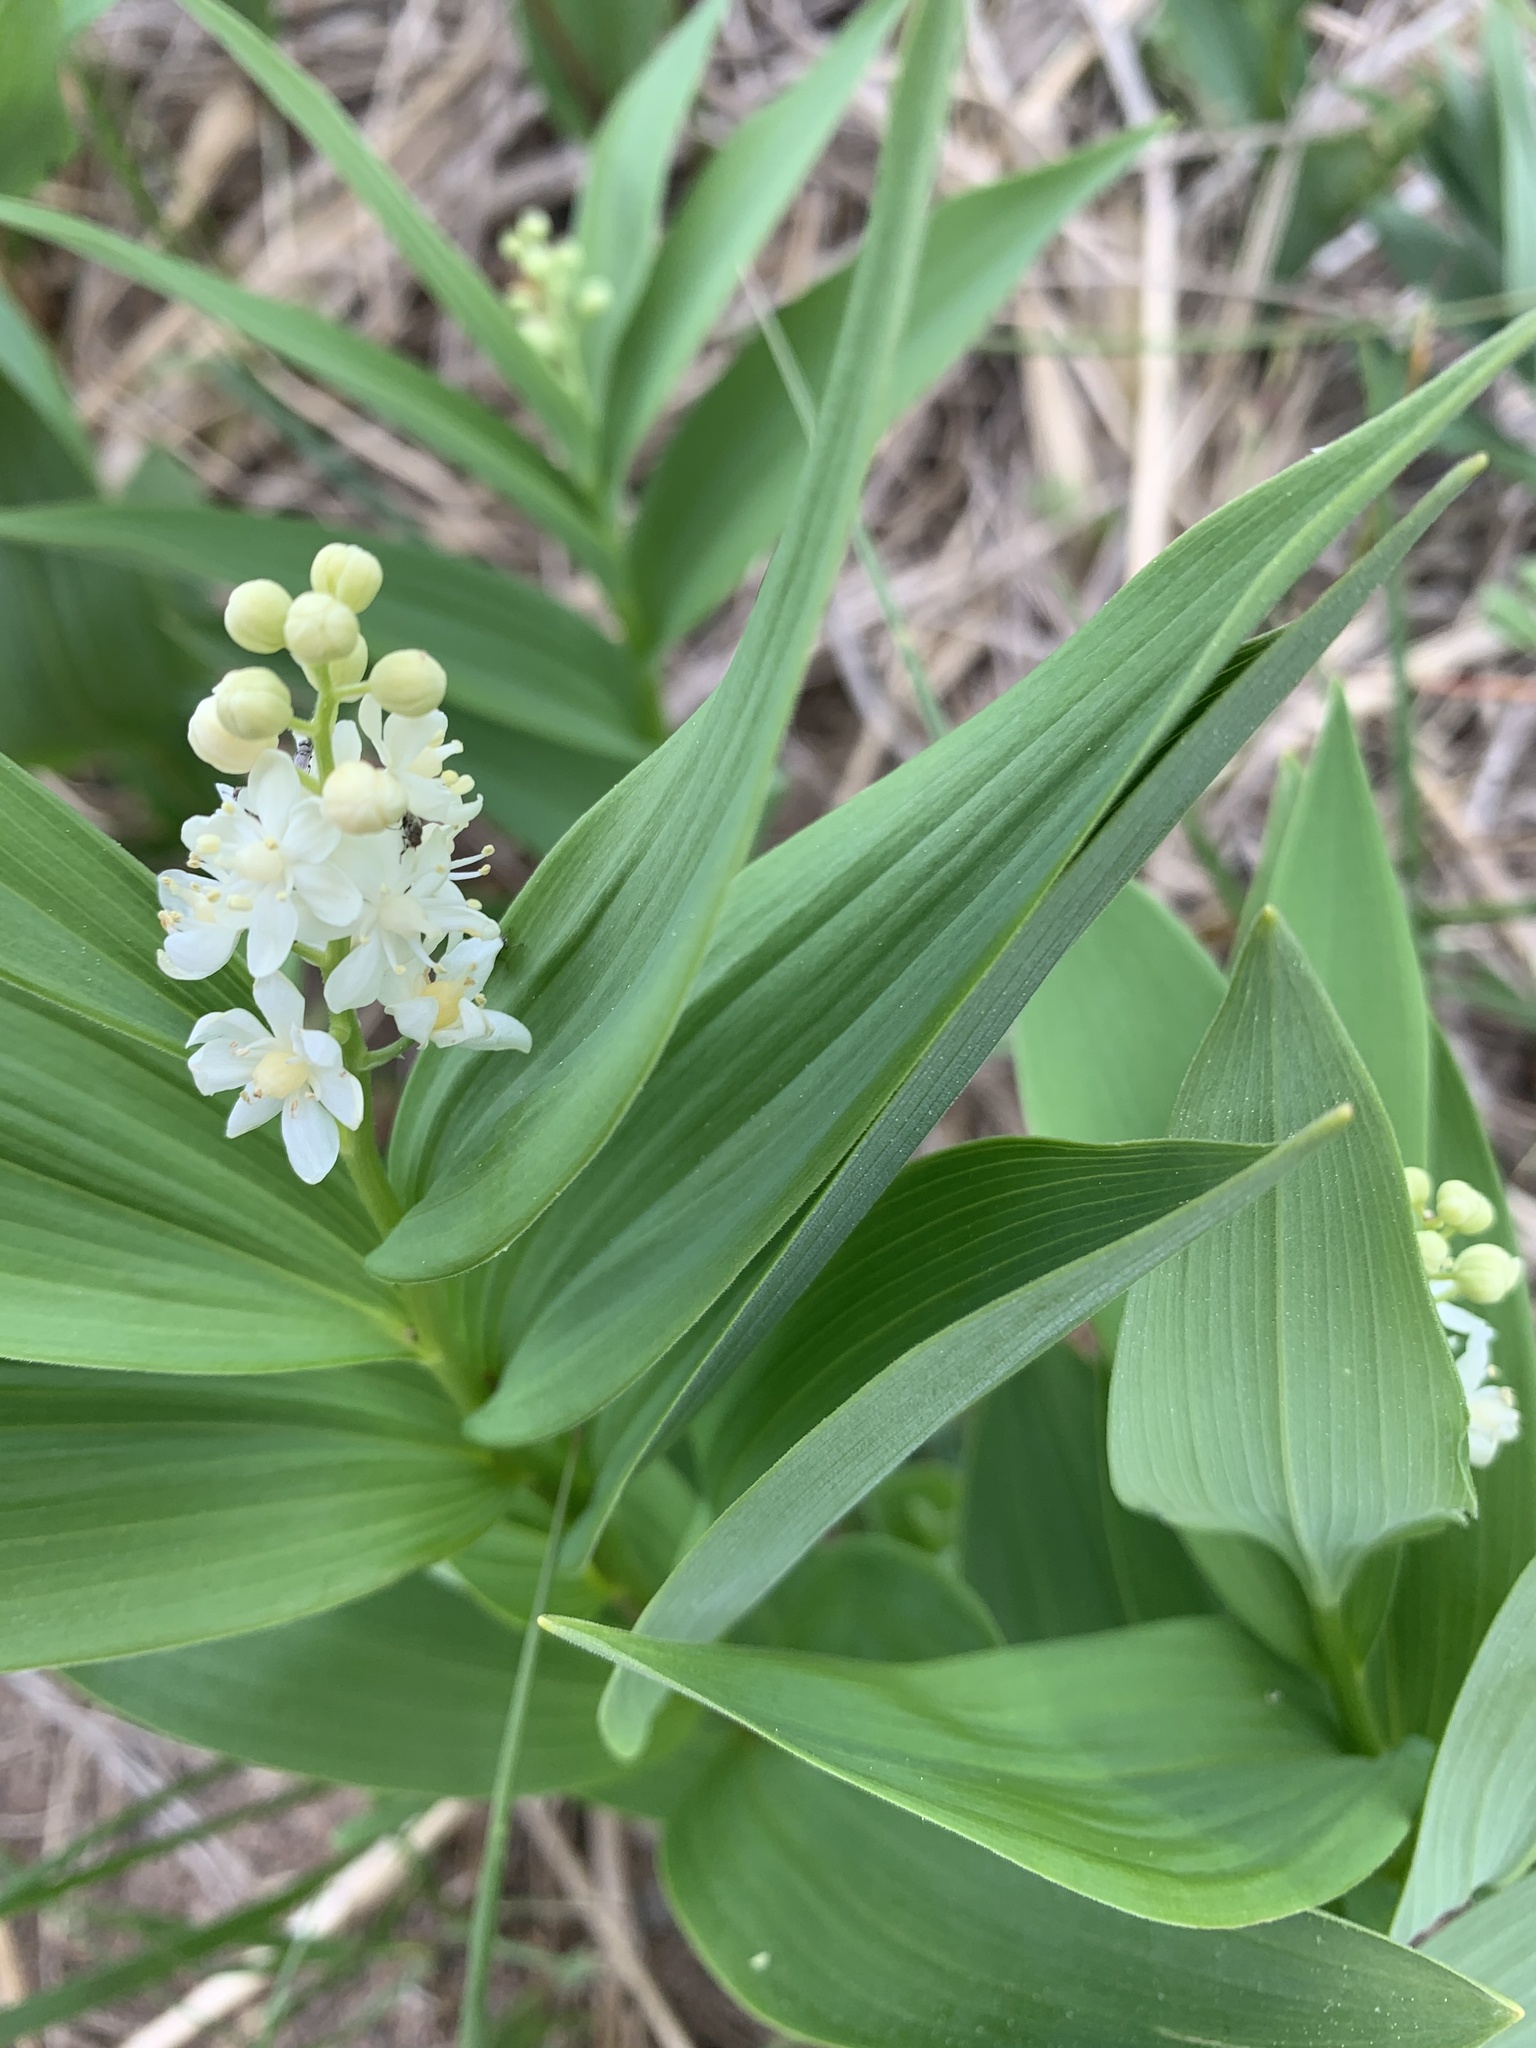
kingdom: Plantae
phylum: Tracheophyta
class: Liliopsida
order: Asparagales
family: Asparagaceae
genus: Maianthemum
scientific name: Maianthemum stellatum
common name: Little false solomon's seal
